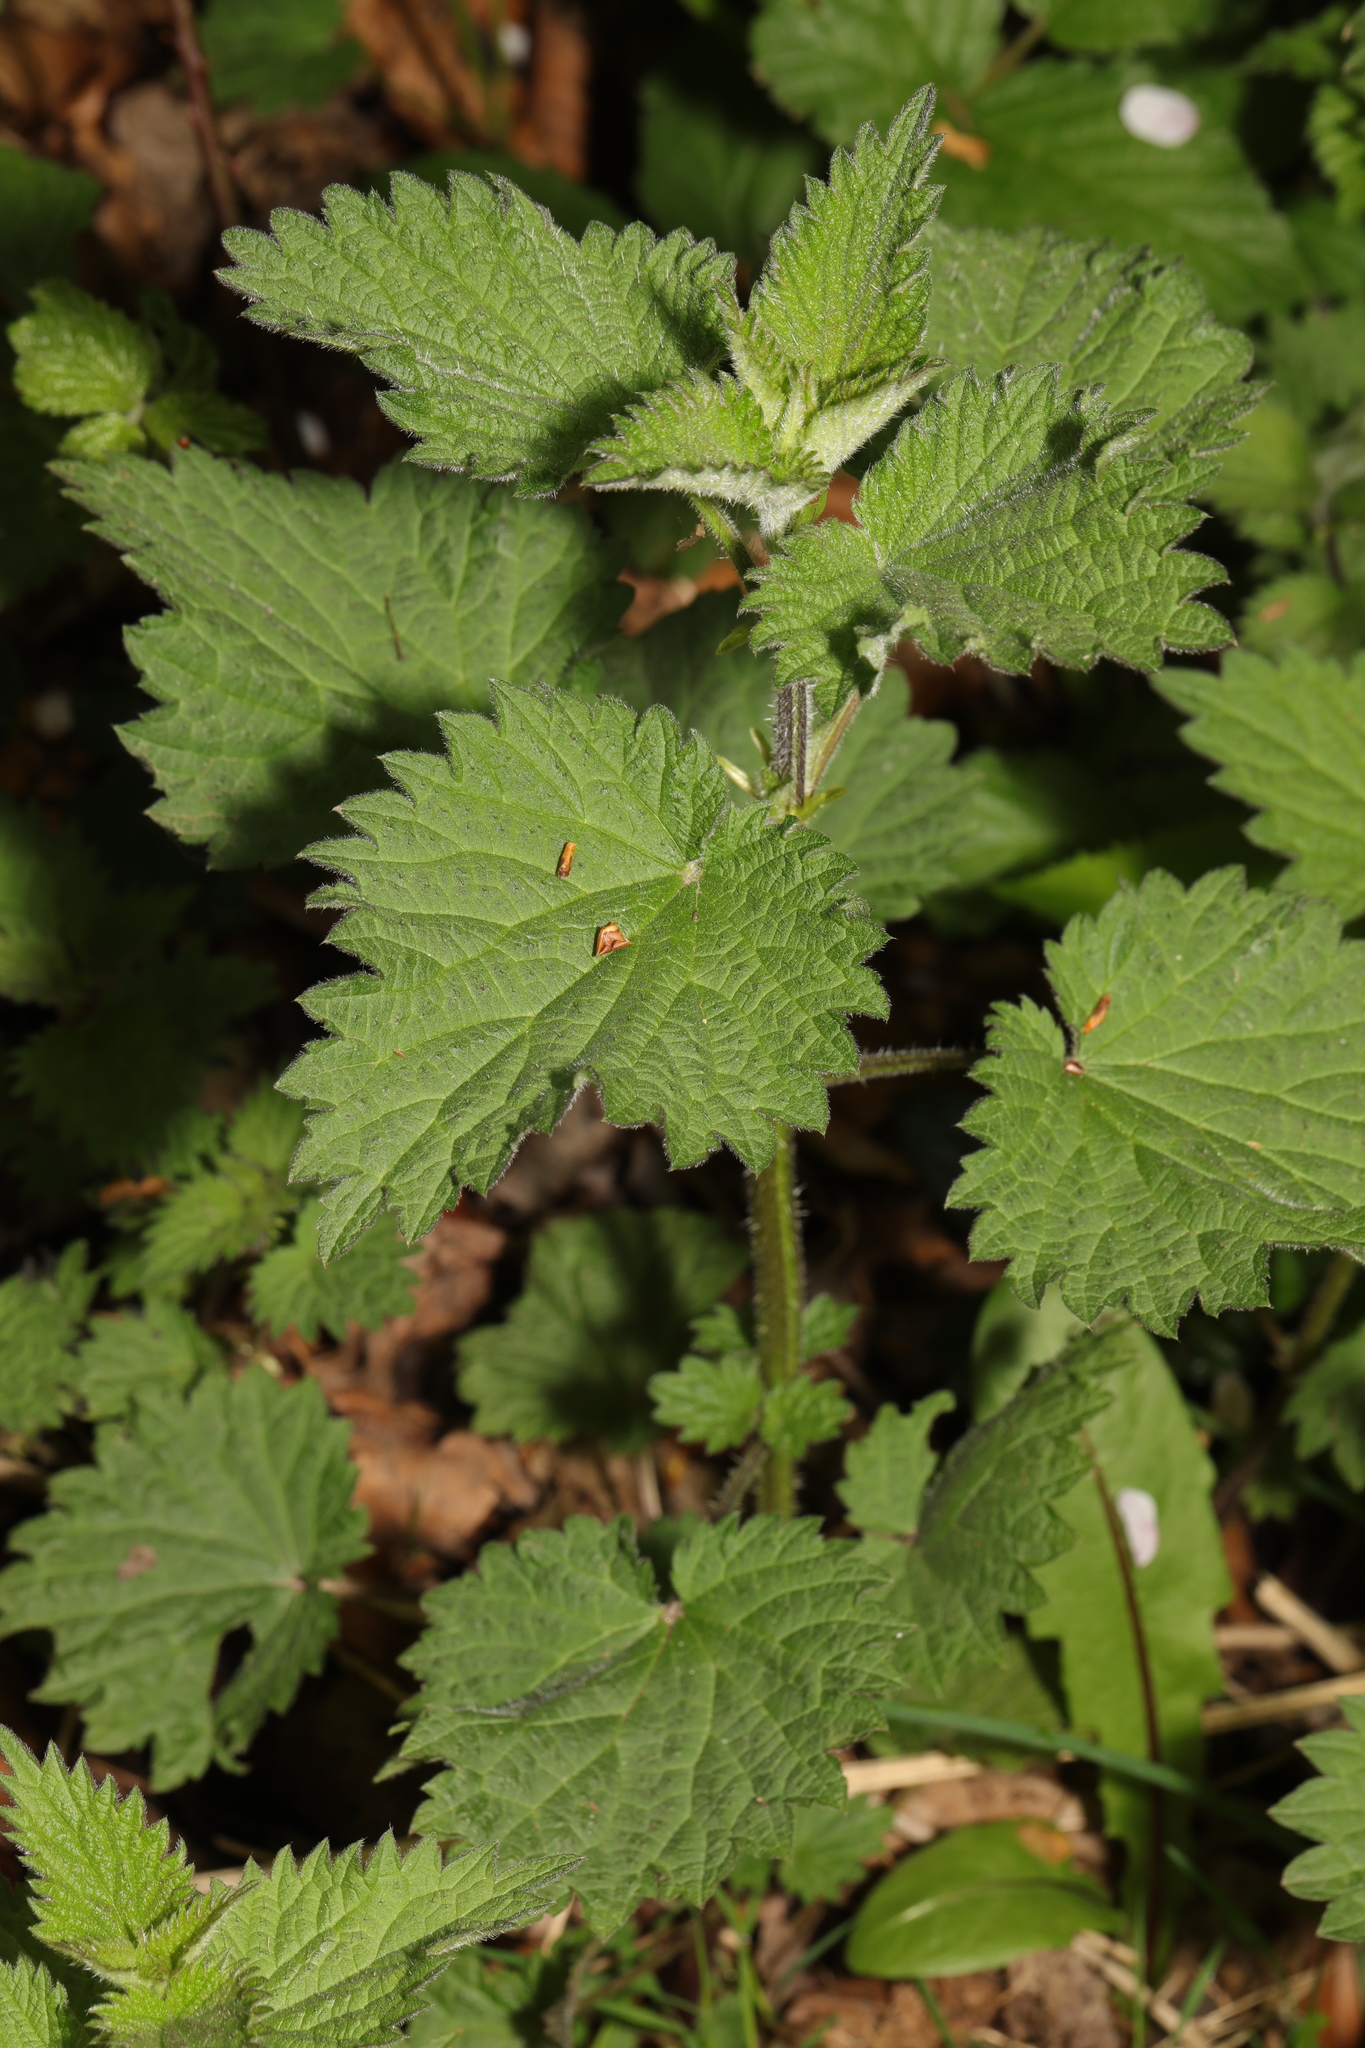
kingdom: Plantae
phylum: Tracheophyta
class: Magnoliopsida
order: Rosales
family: Urticaceae
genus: Urtica
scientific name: Urtica dioica
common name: Common nettle
